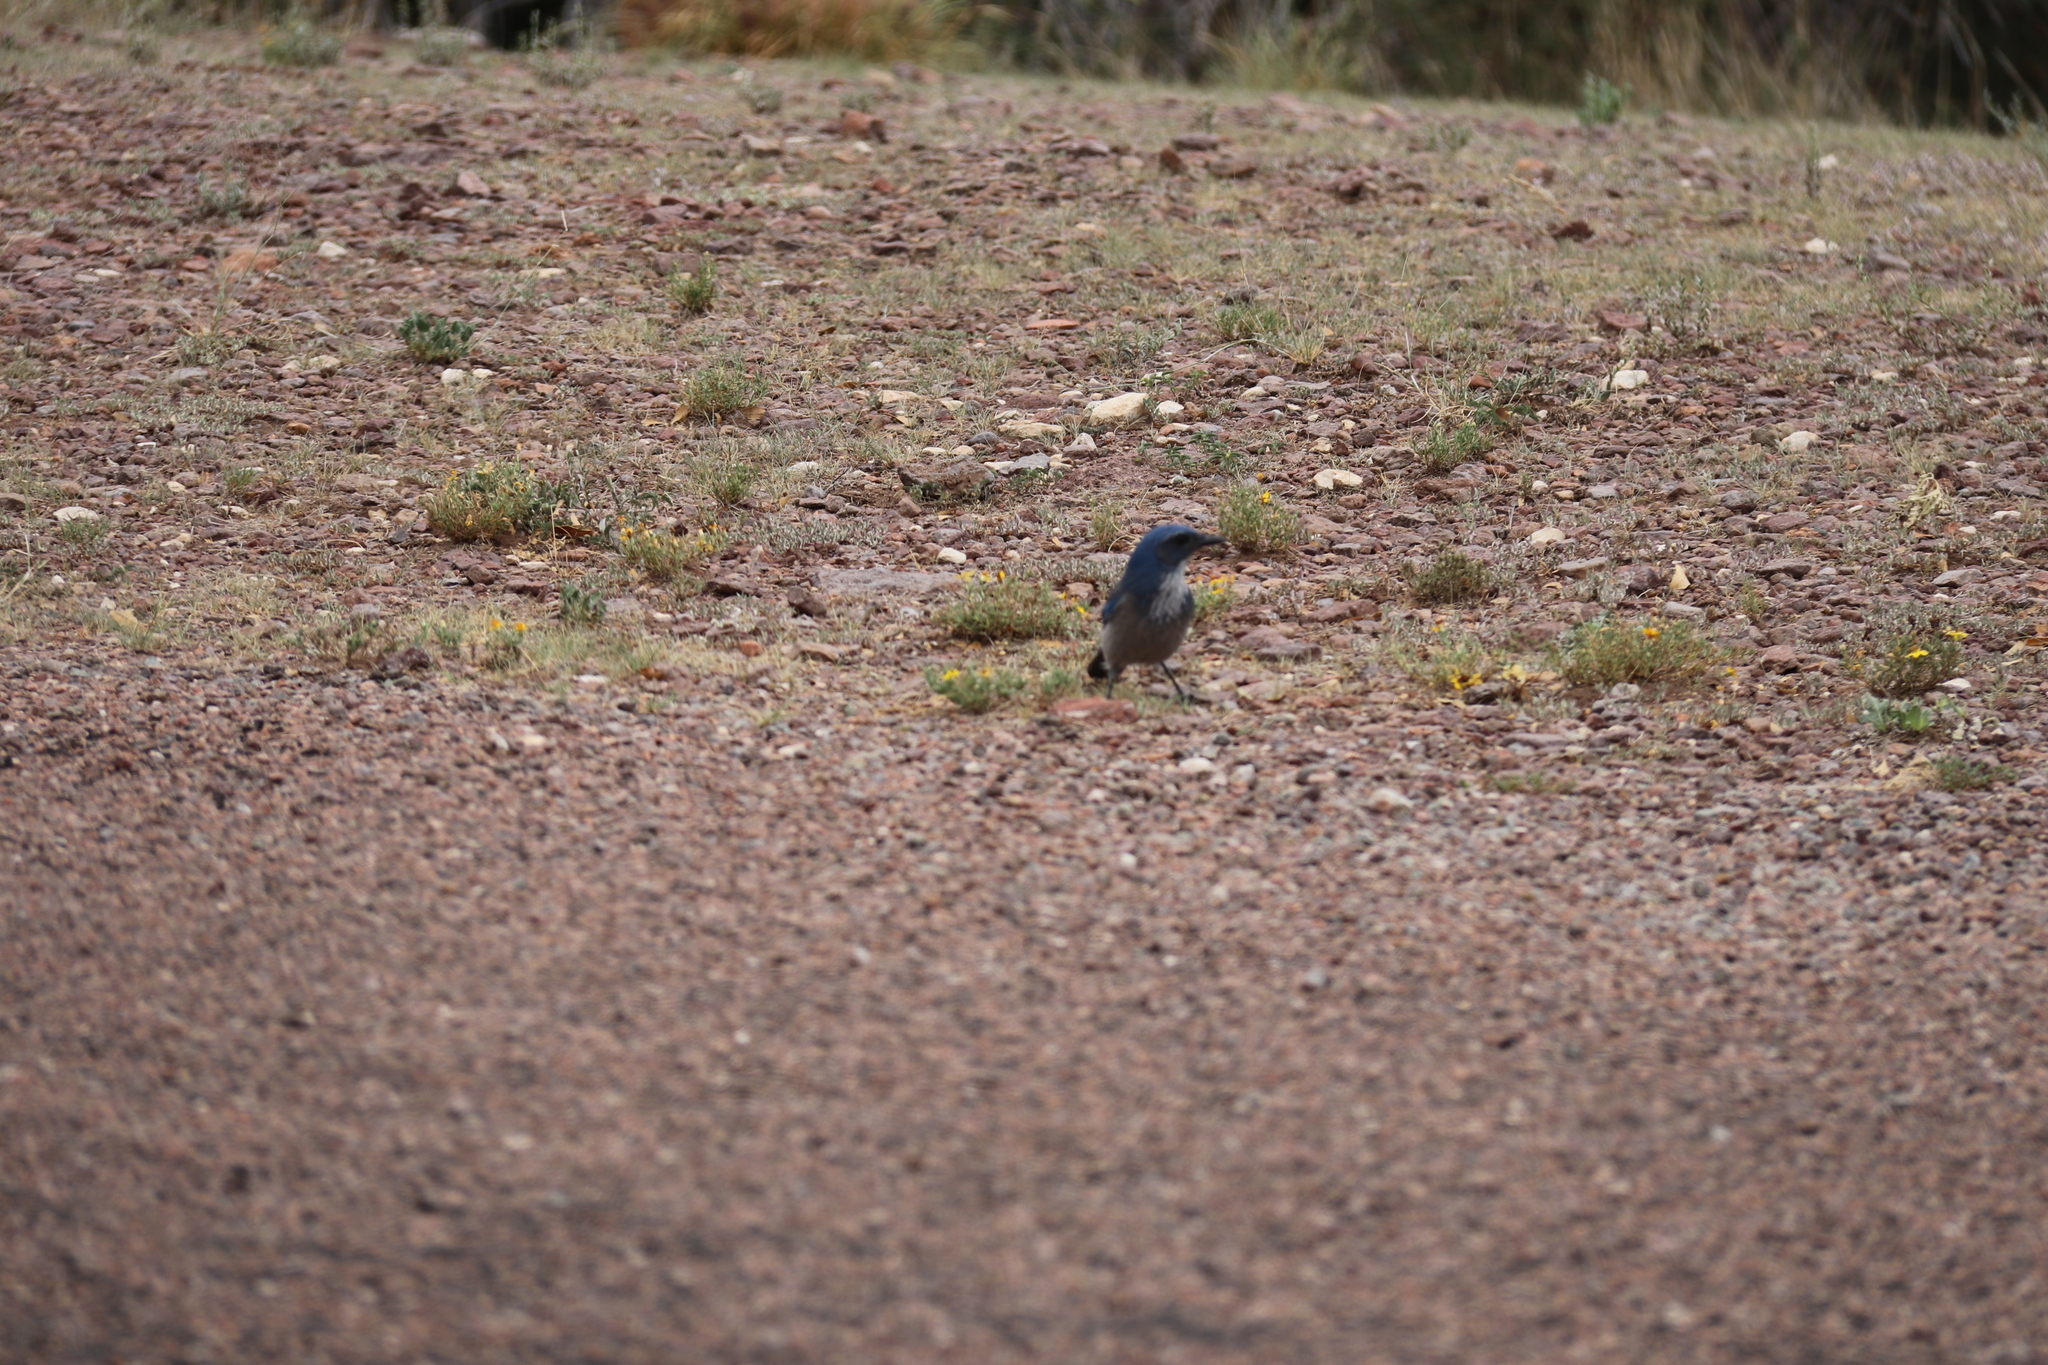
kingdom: Animalia
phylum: Chordata
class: Aves
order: Passeriformes
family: Corvidae
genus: Aphelocoma
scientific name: Aphelocoma woodhouseii
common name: Woodhouse's scrub-jay
